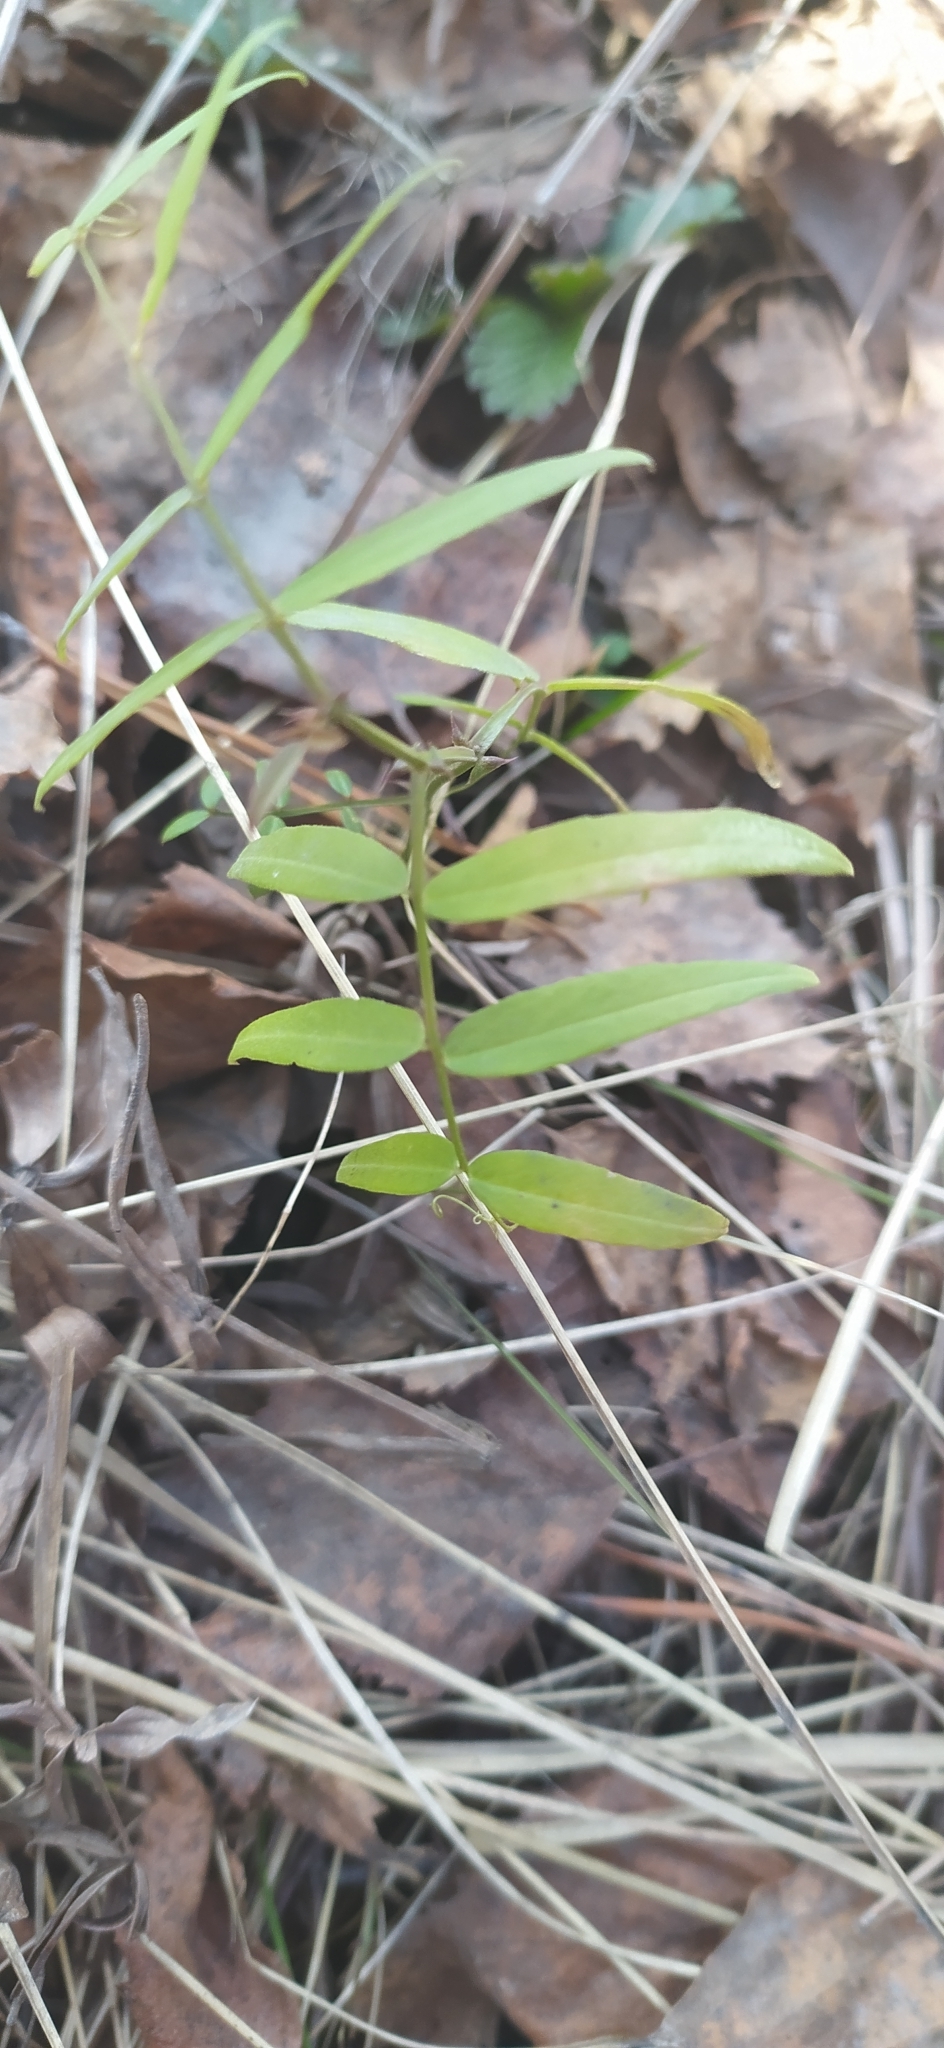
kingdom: Plantae
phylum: Tracheophyta
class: Magnoliopsida
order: Fabales
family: Fabaceae
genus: Vicia
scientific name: Vicia sepium
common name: Bush vetch
